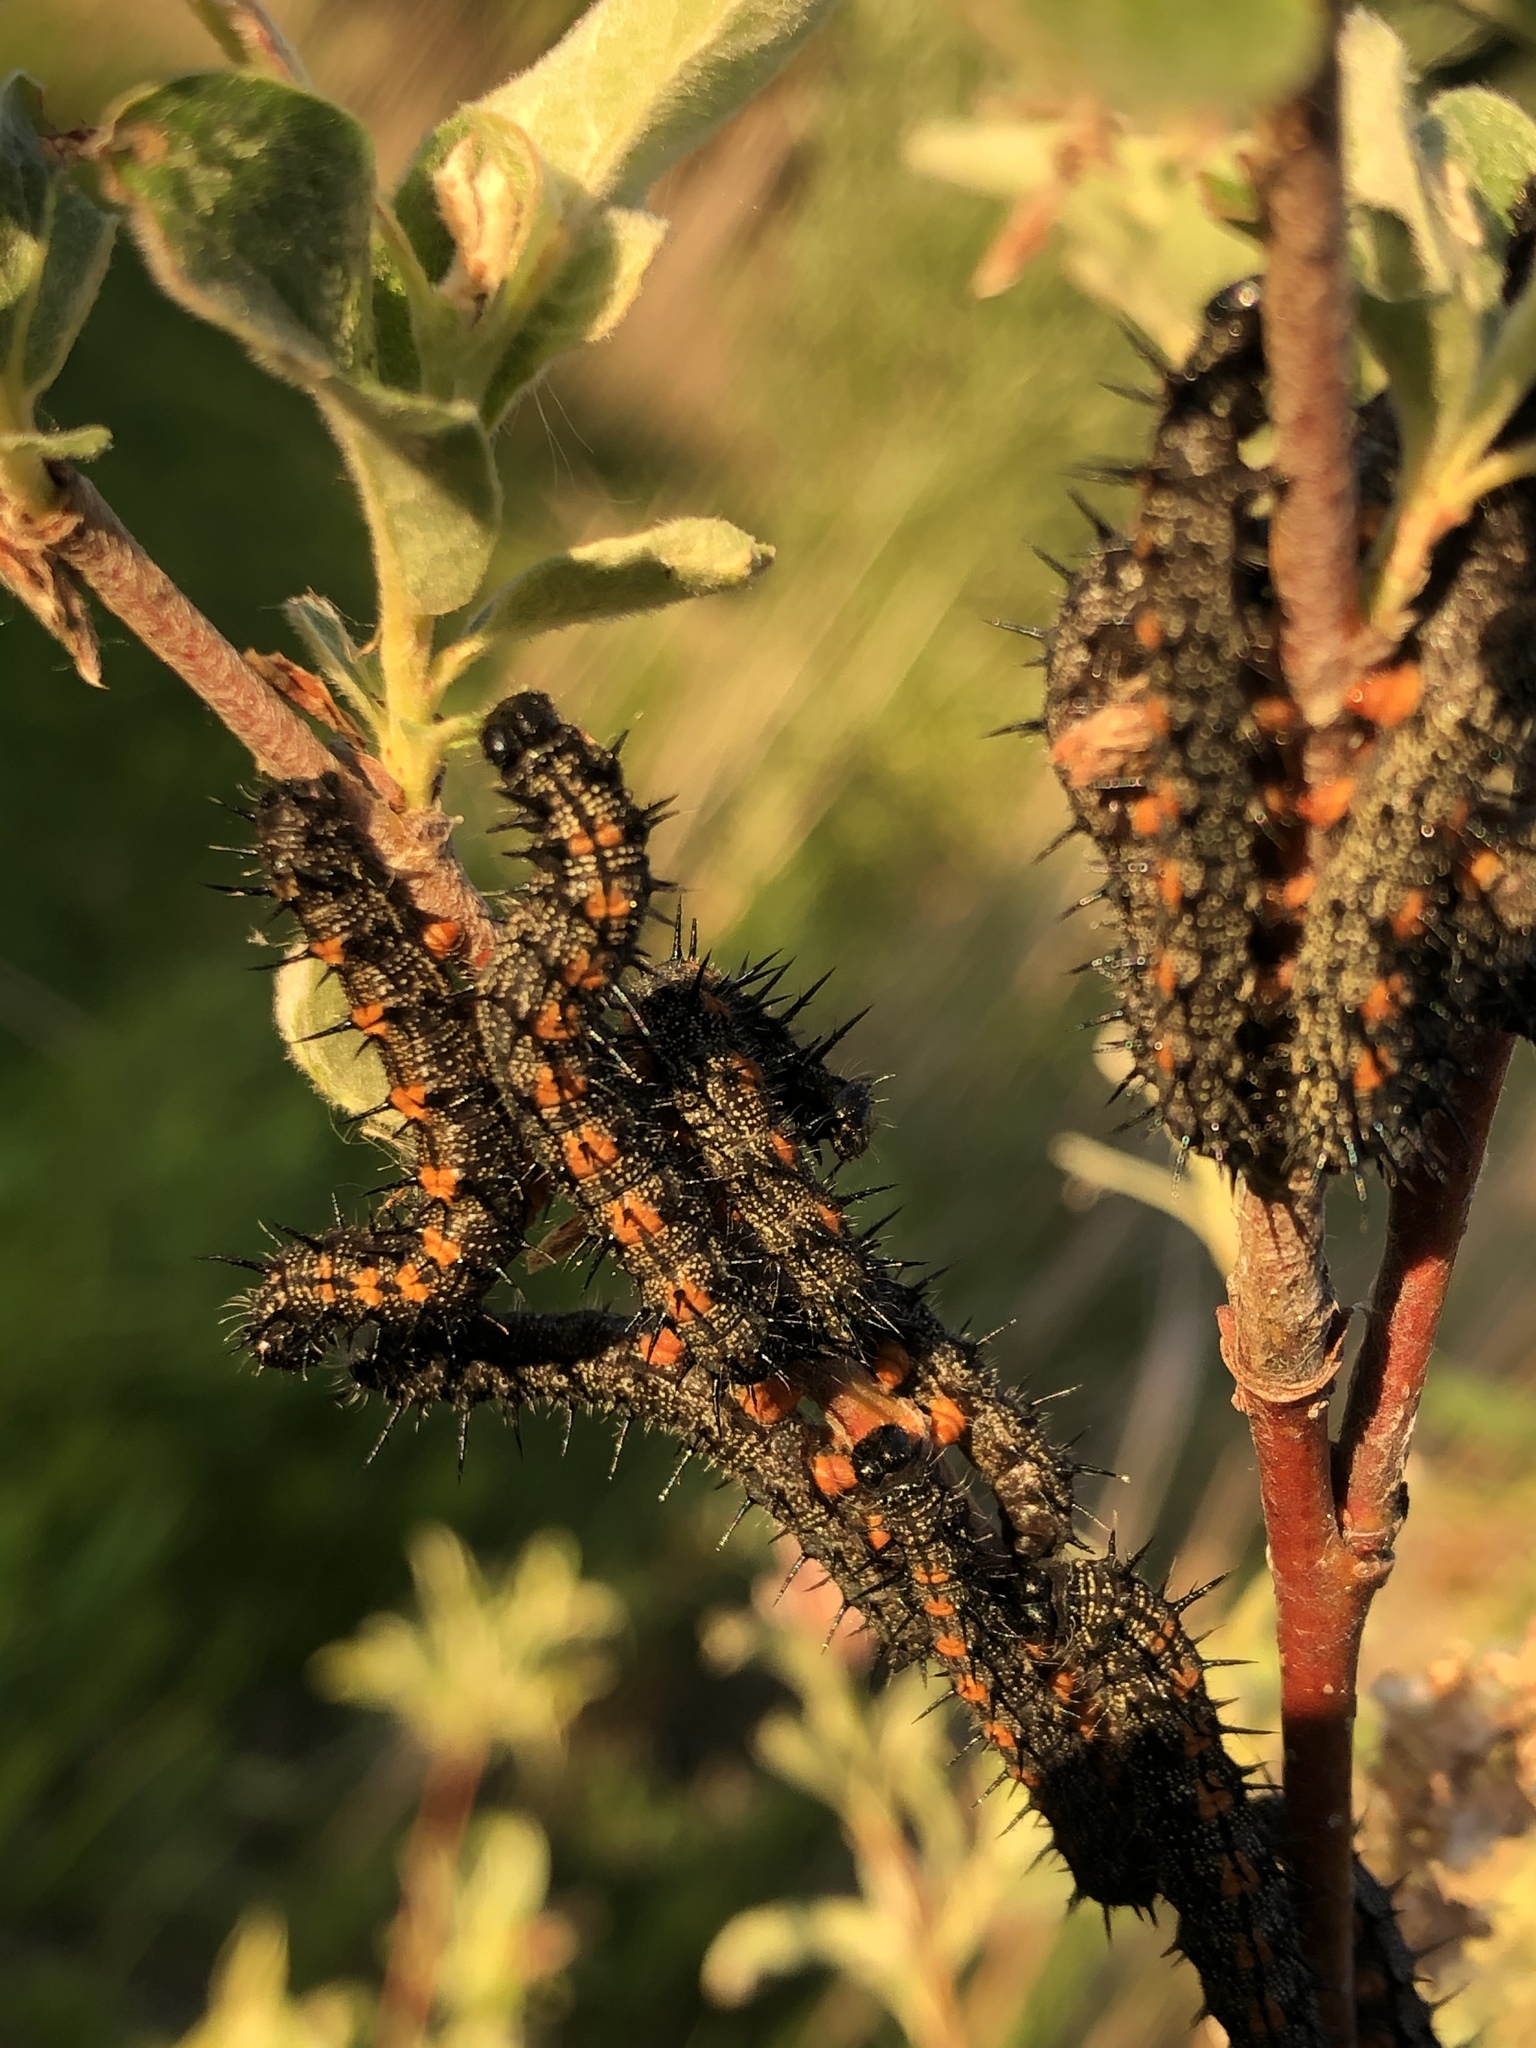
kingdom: Animalia
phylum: Arthropoda
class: Insecta
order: Lepidoptera
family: Nymphalidae
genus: Nymphalis
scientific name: Nymphalis antiopa
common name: Camberwell beauty
